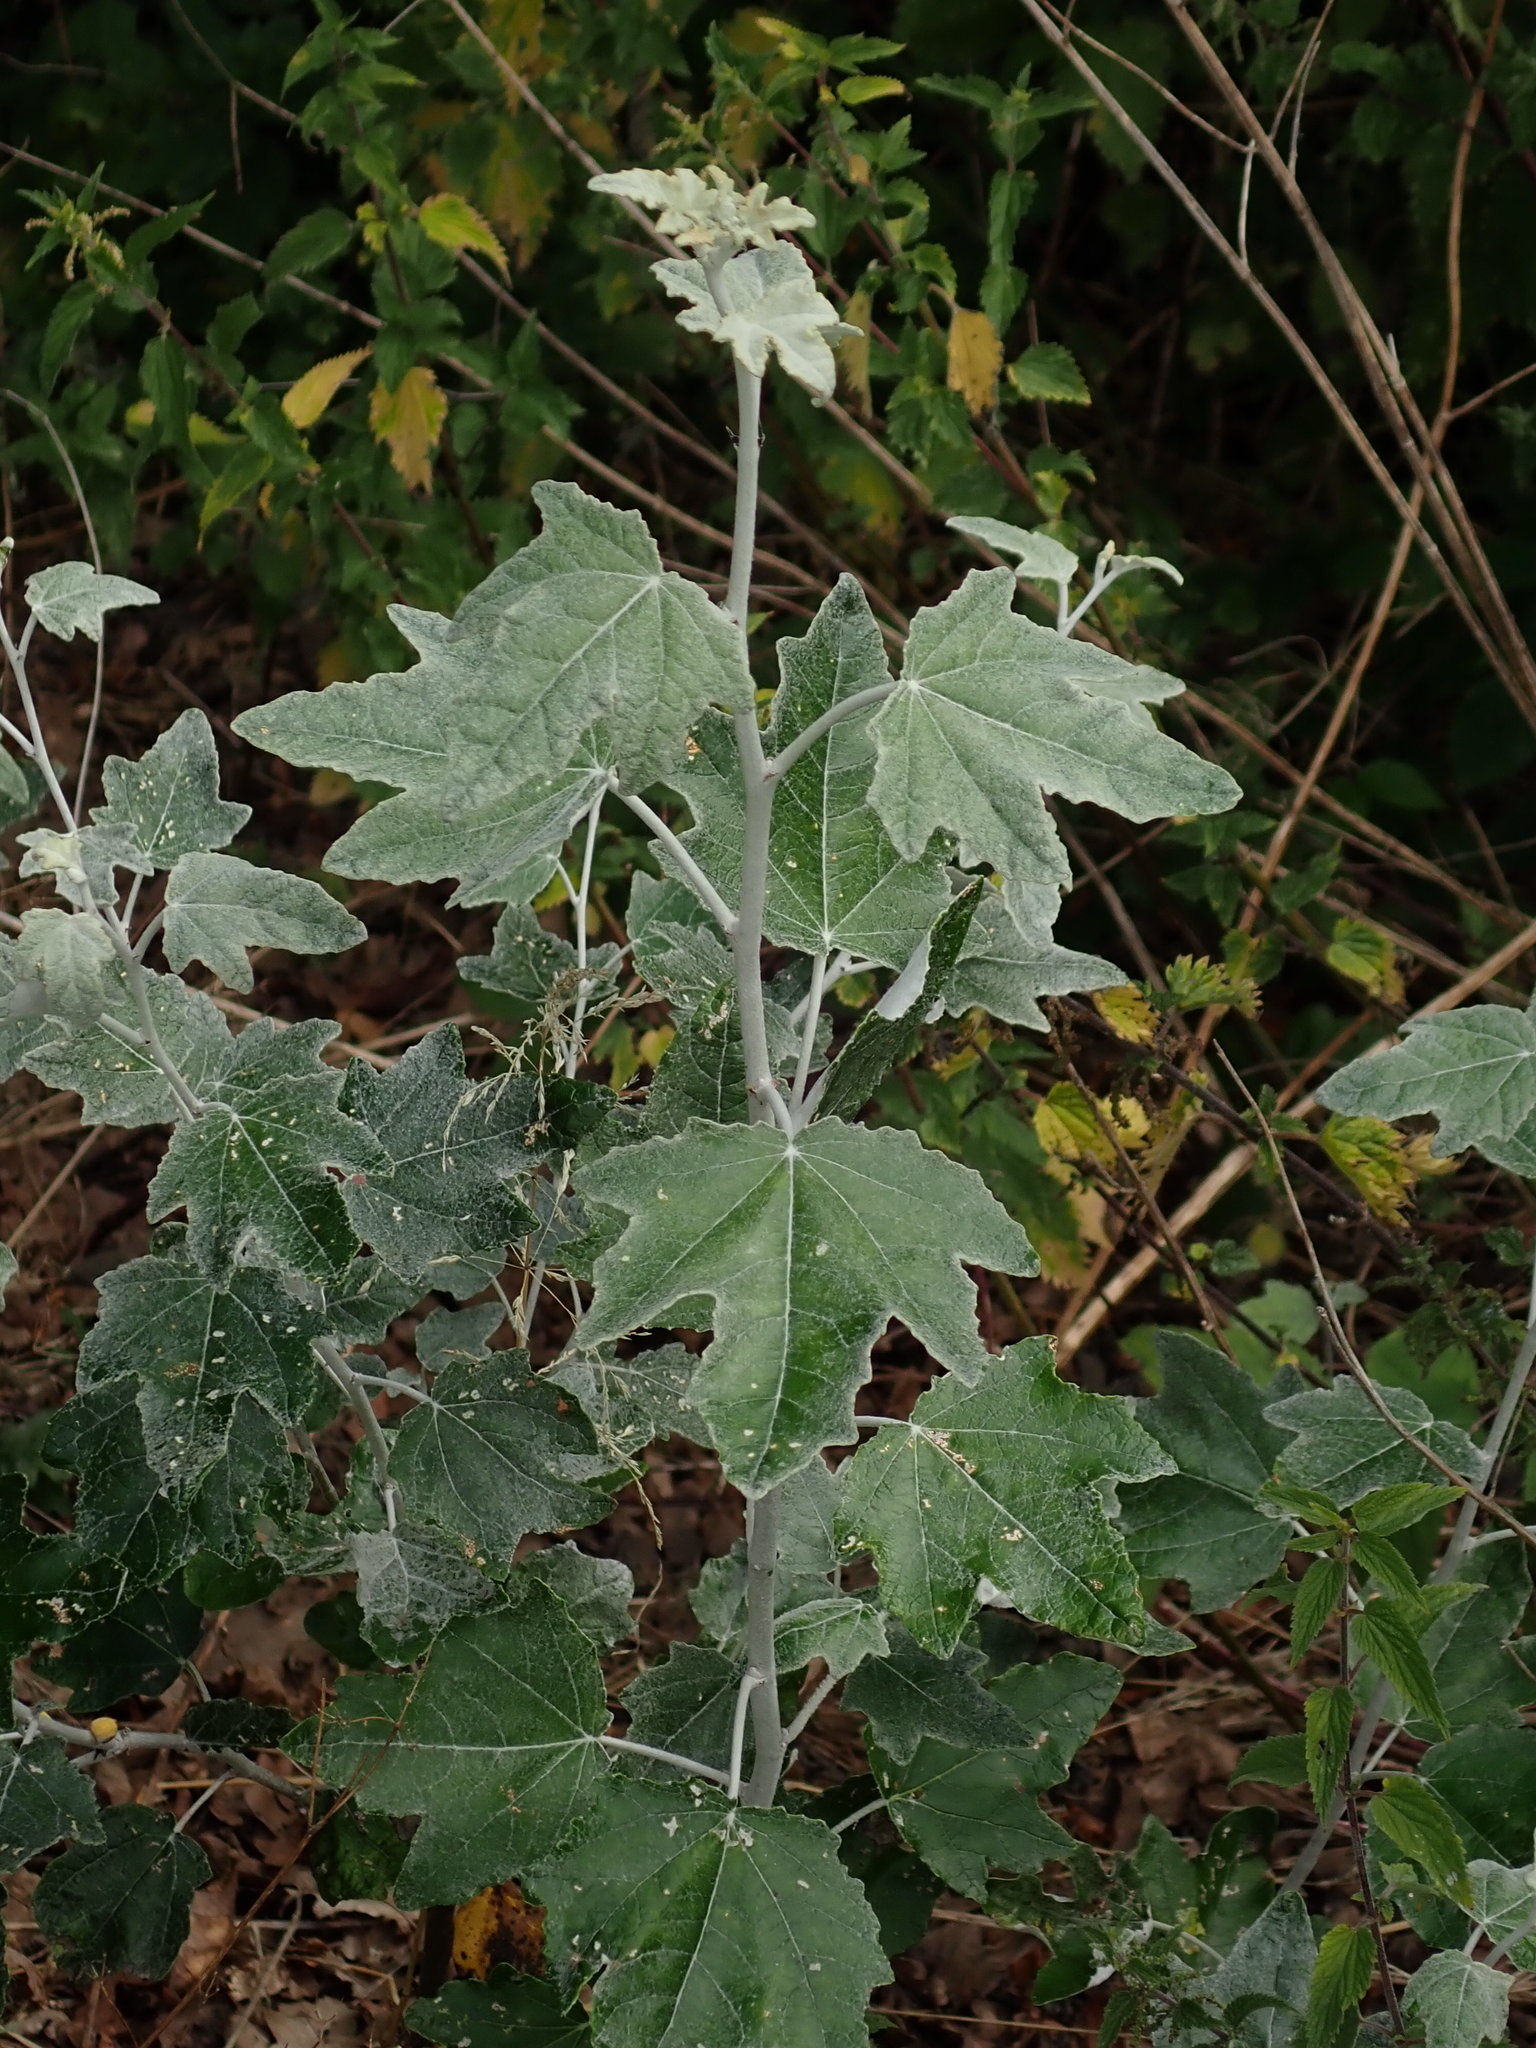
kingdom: Plantae
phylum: Tracheophyta
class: Magnoliopsida
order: Malpighiales
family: Salicaceae
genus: Populus
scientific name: Populus alba
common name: White poplar
